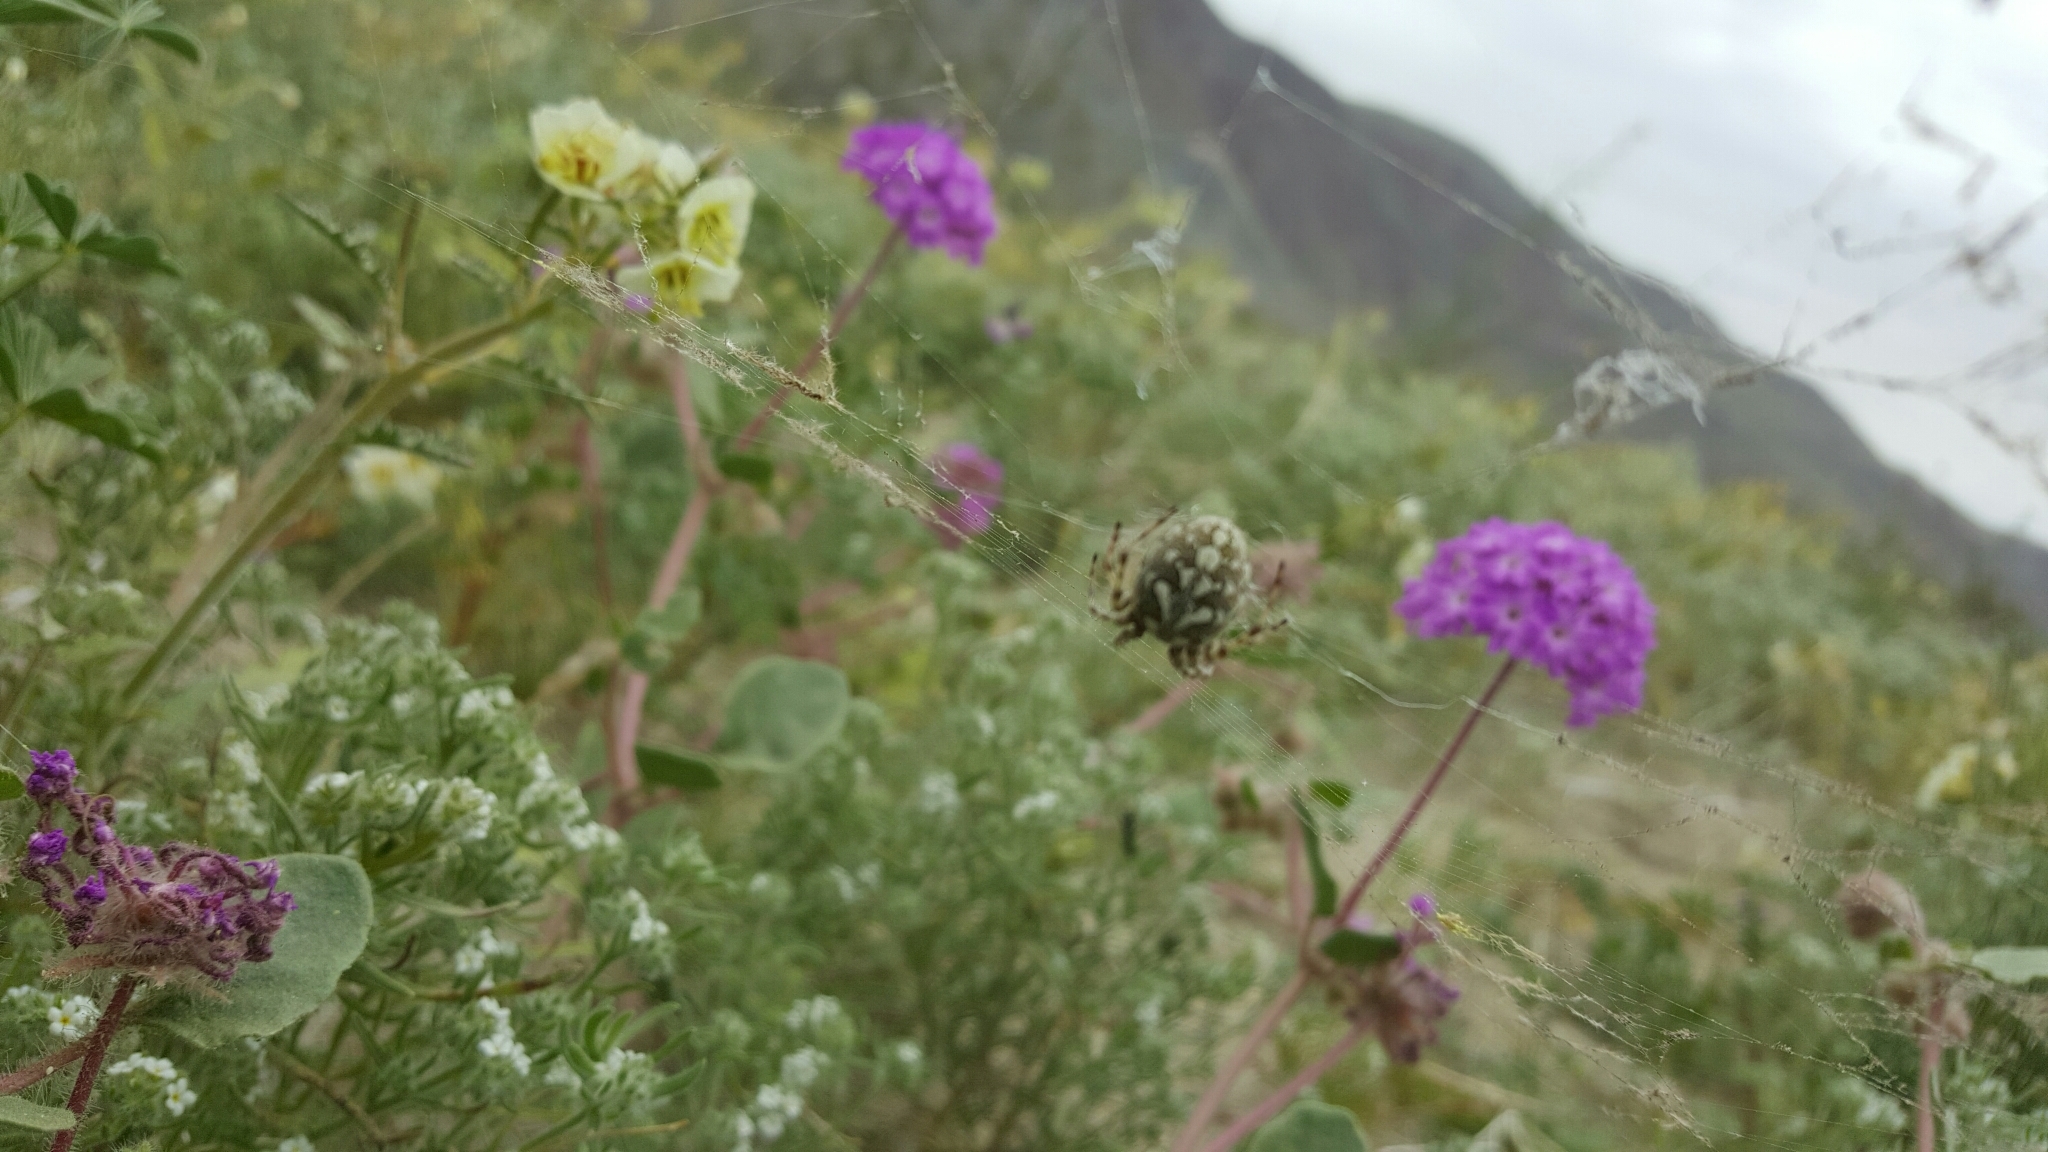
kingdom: Animalia
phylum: Arthropoda
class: Arachnida
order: Araneae
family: Araneidae
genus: Aculepeira
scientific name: Aculepeira packardi
